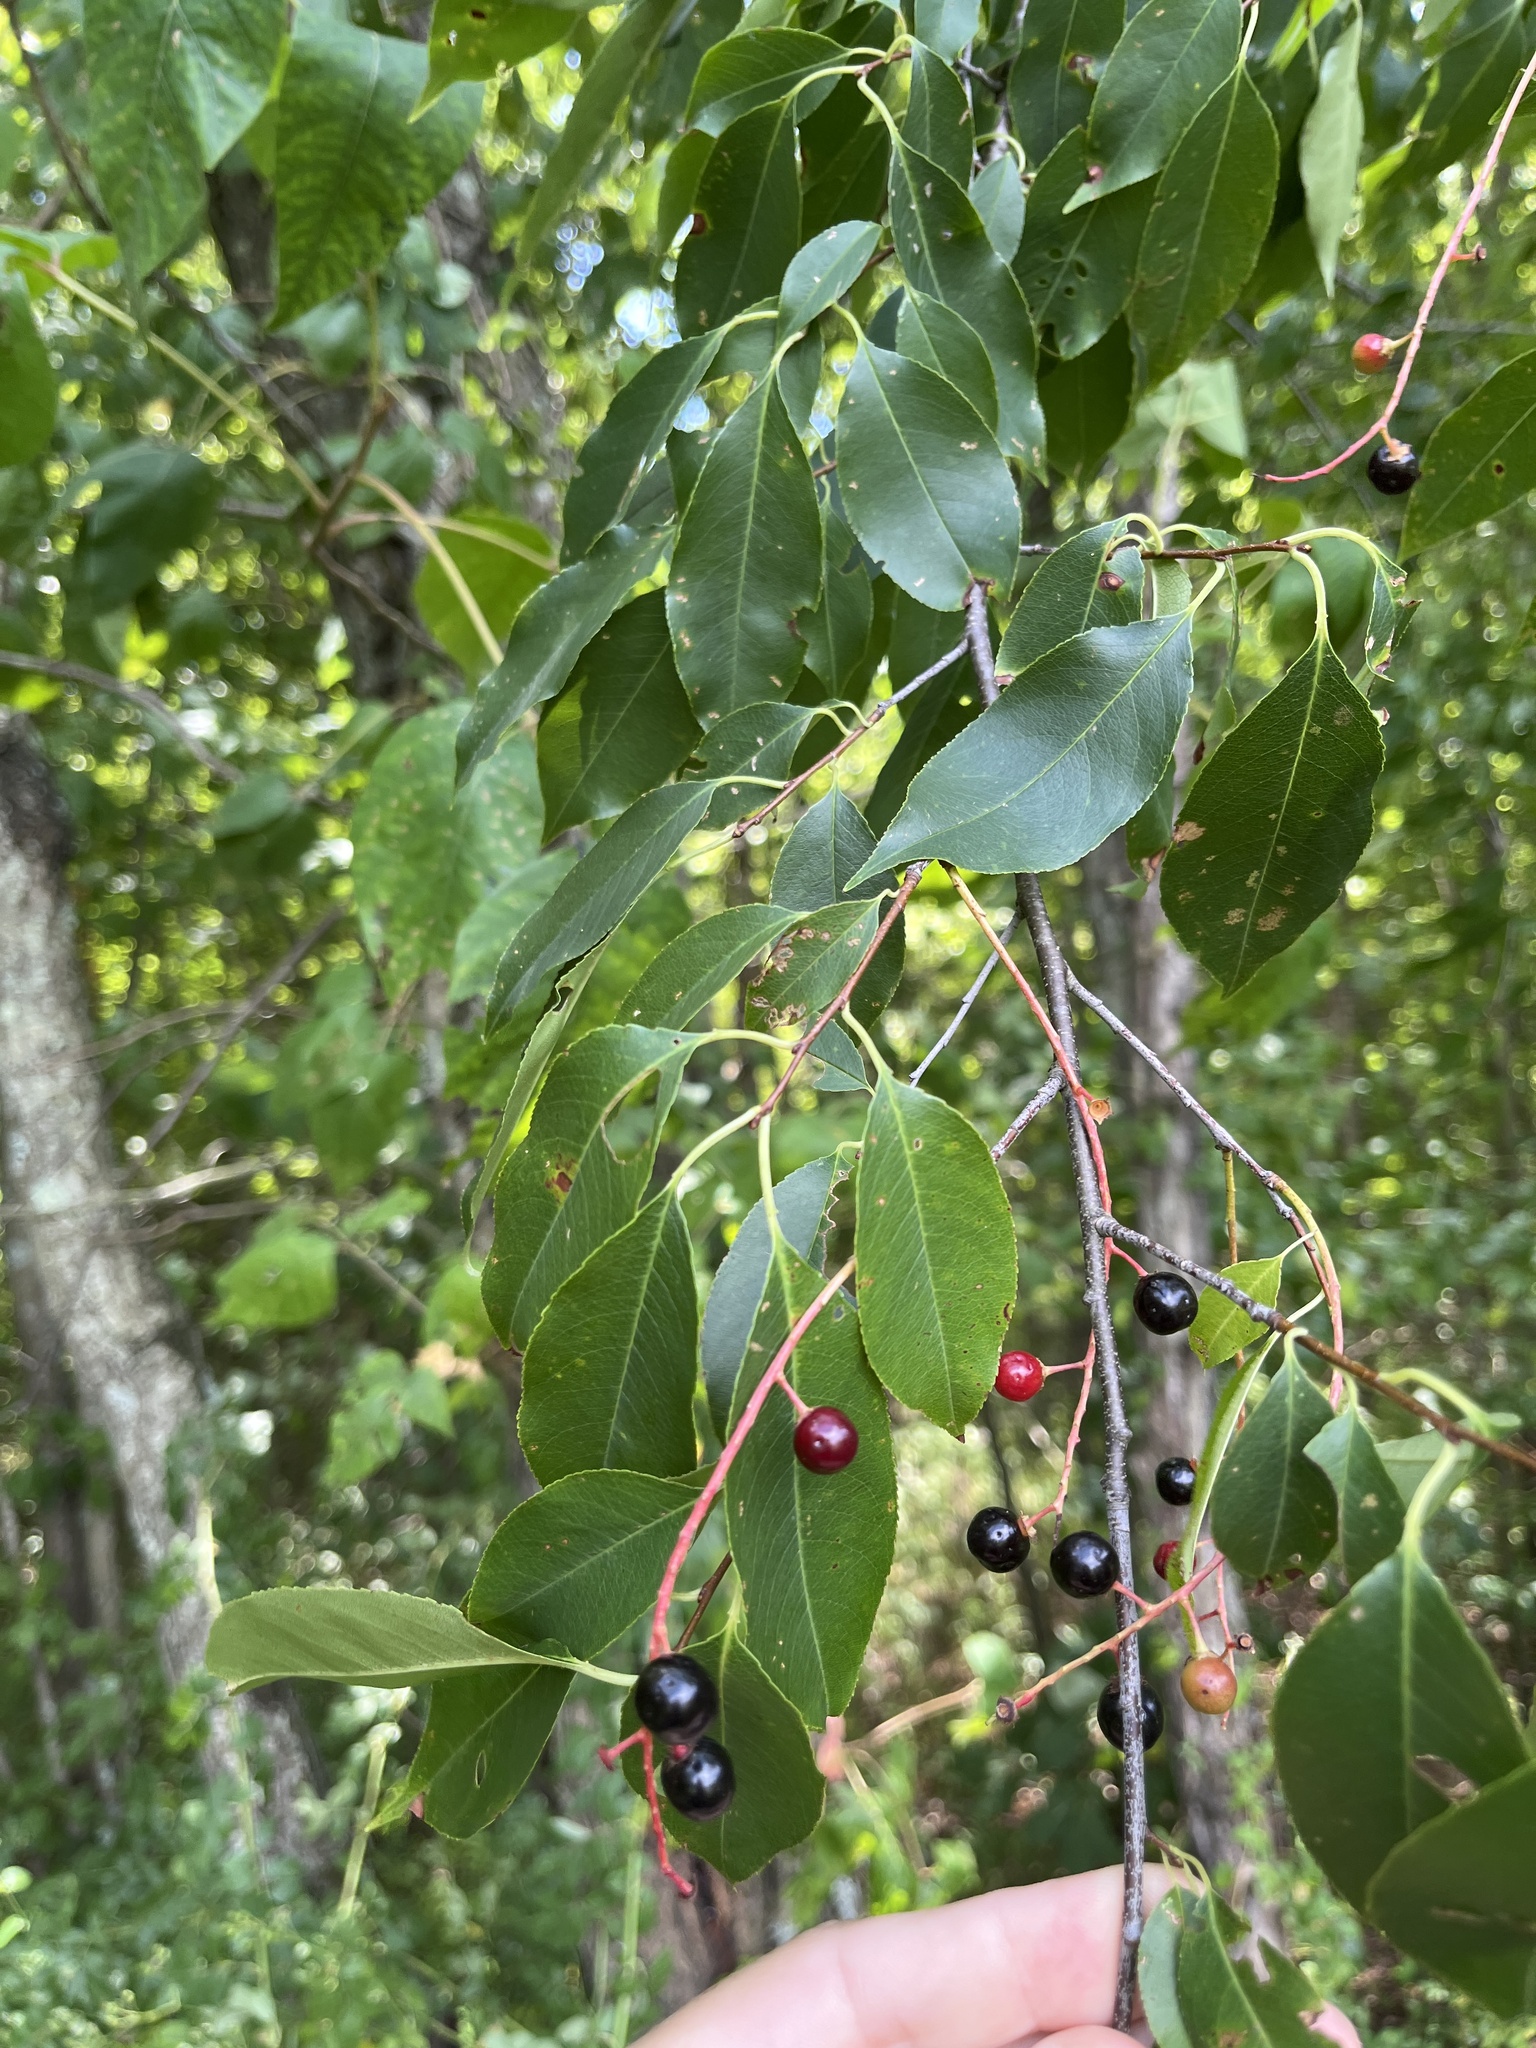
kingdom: Plantae
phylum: Tracheophyta
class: Magnoliopsida
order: Rosales
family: Rosaceae
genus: Prunus
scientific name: Prunus serotina
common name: Black cherry
